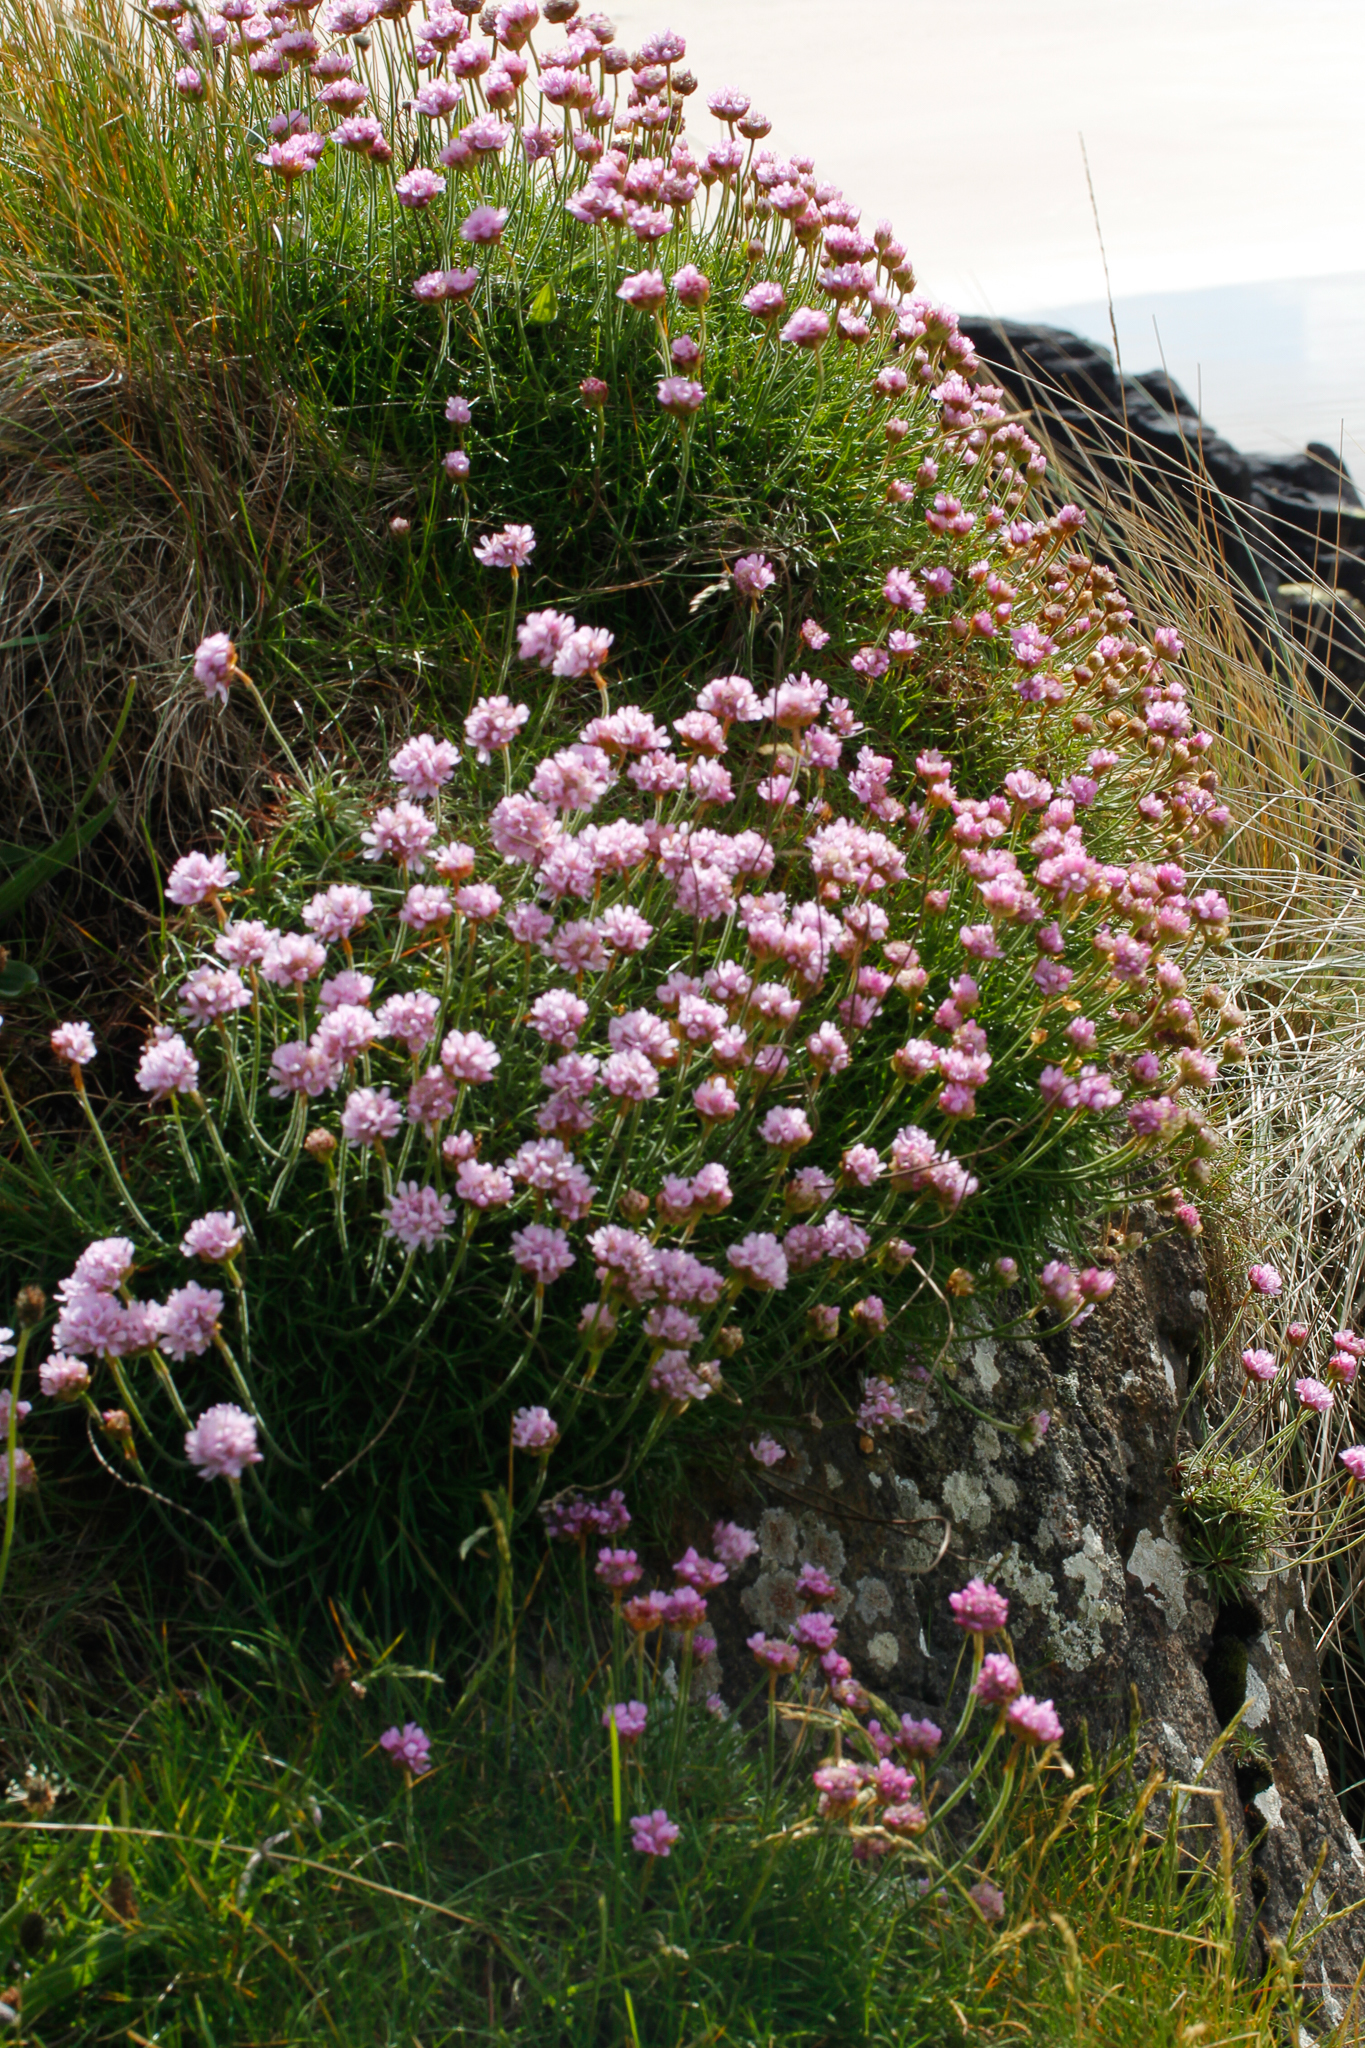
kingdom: Plantae
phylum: Tracheophyta
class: Magnoliopsida
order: Caryophyllales
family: Plumbaginaceae
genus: Armeria
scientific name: Armeria maritima
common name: Thrift
